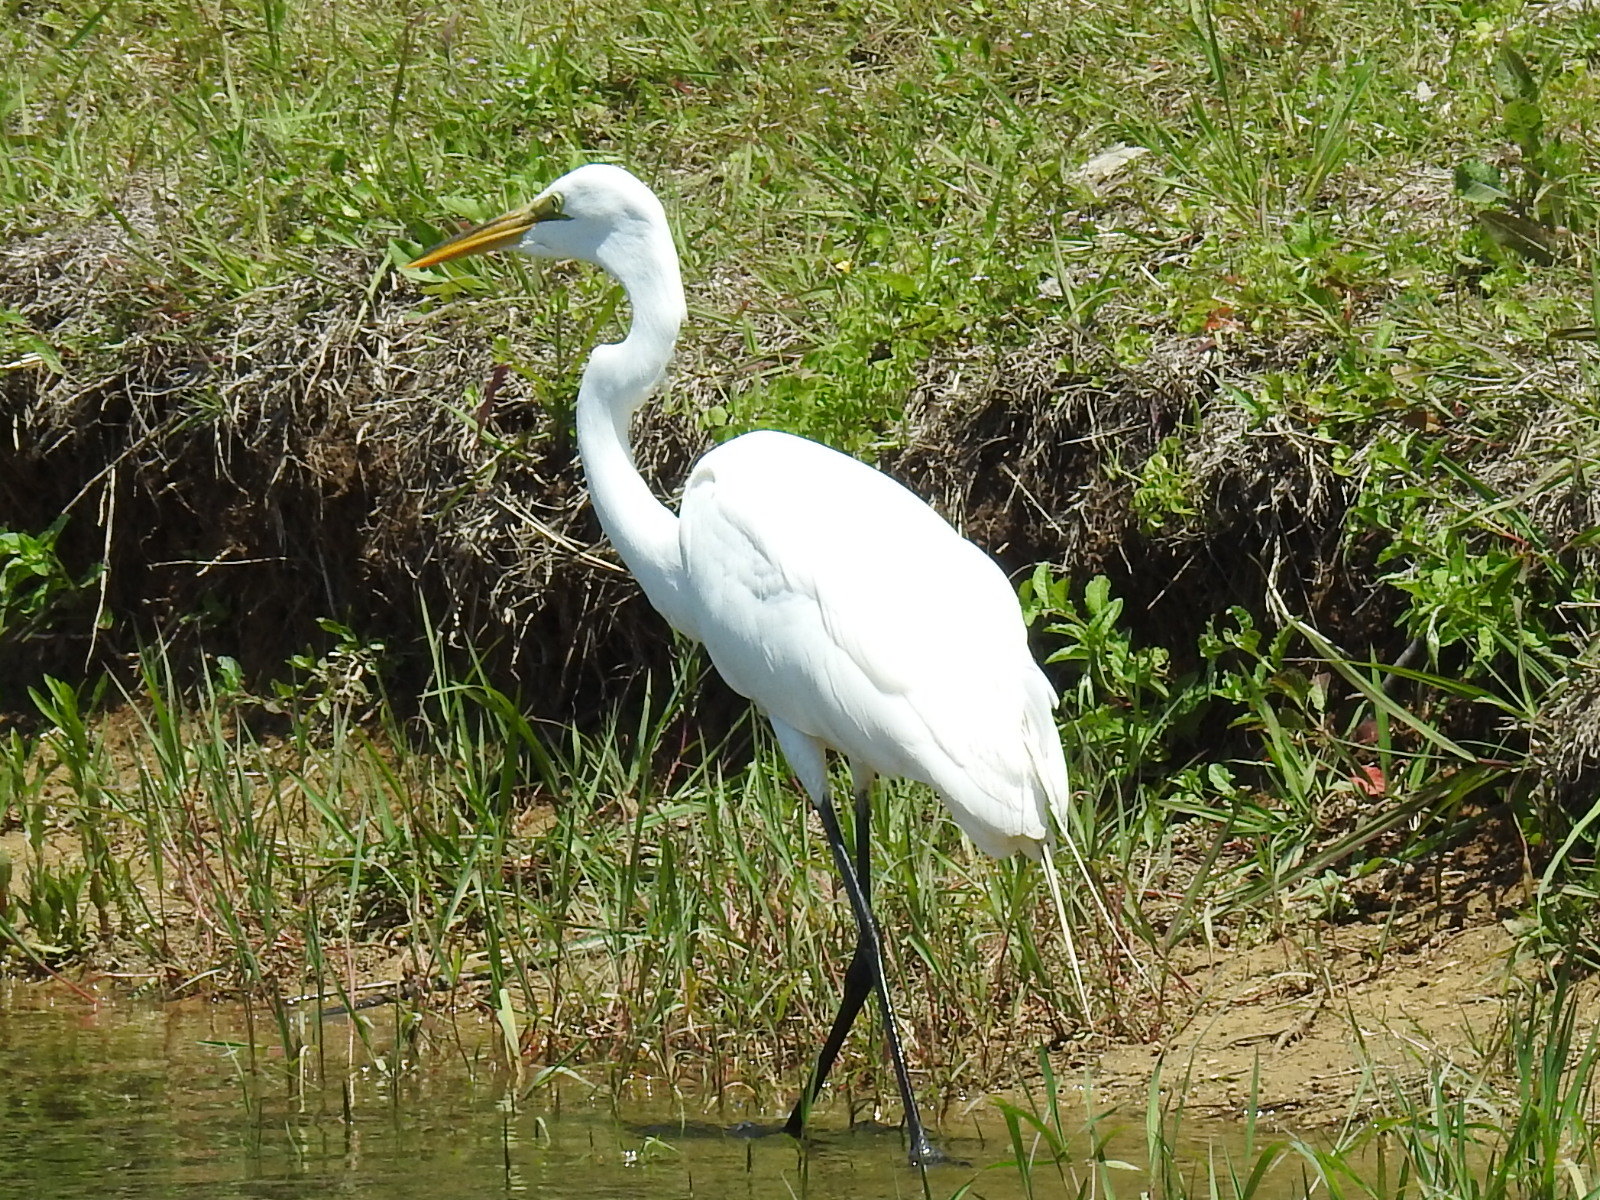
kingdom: Animalia
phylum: Chordata
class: Aves
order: Pelecaniformes
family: Ardeidae
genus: Ardea
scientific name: Ardea alba
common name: Great egret
